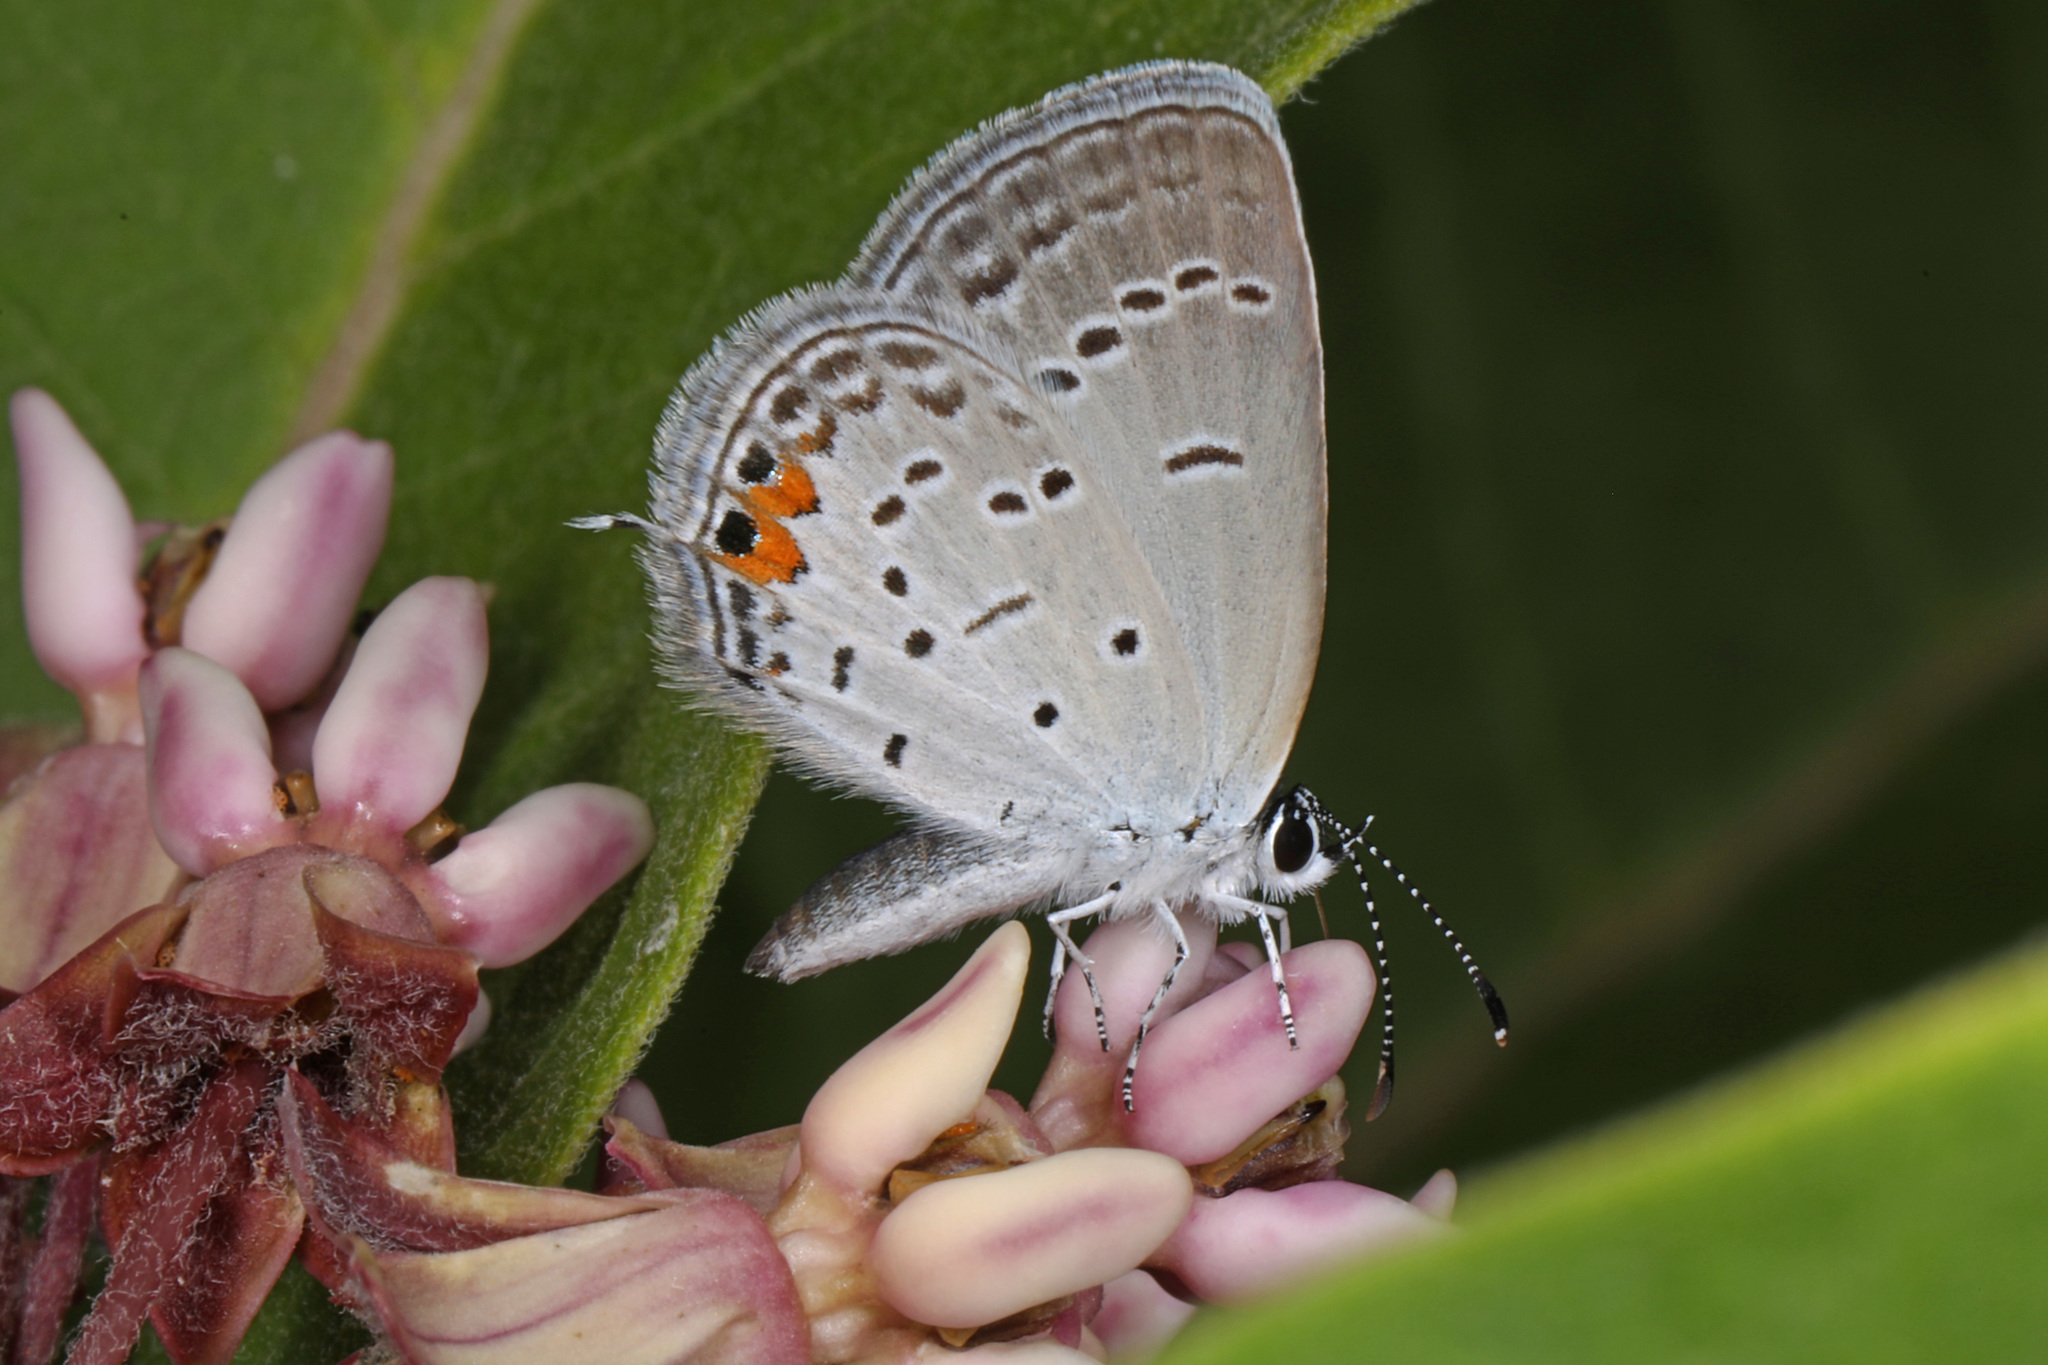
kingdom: Animalia
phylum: Arthropoda
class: Insecta
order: Lepidoptera
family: Lycaenidae
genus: Elkalyce
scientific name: Elkalyce comyntas
